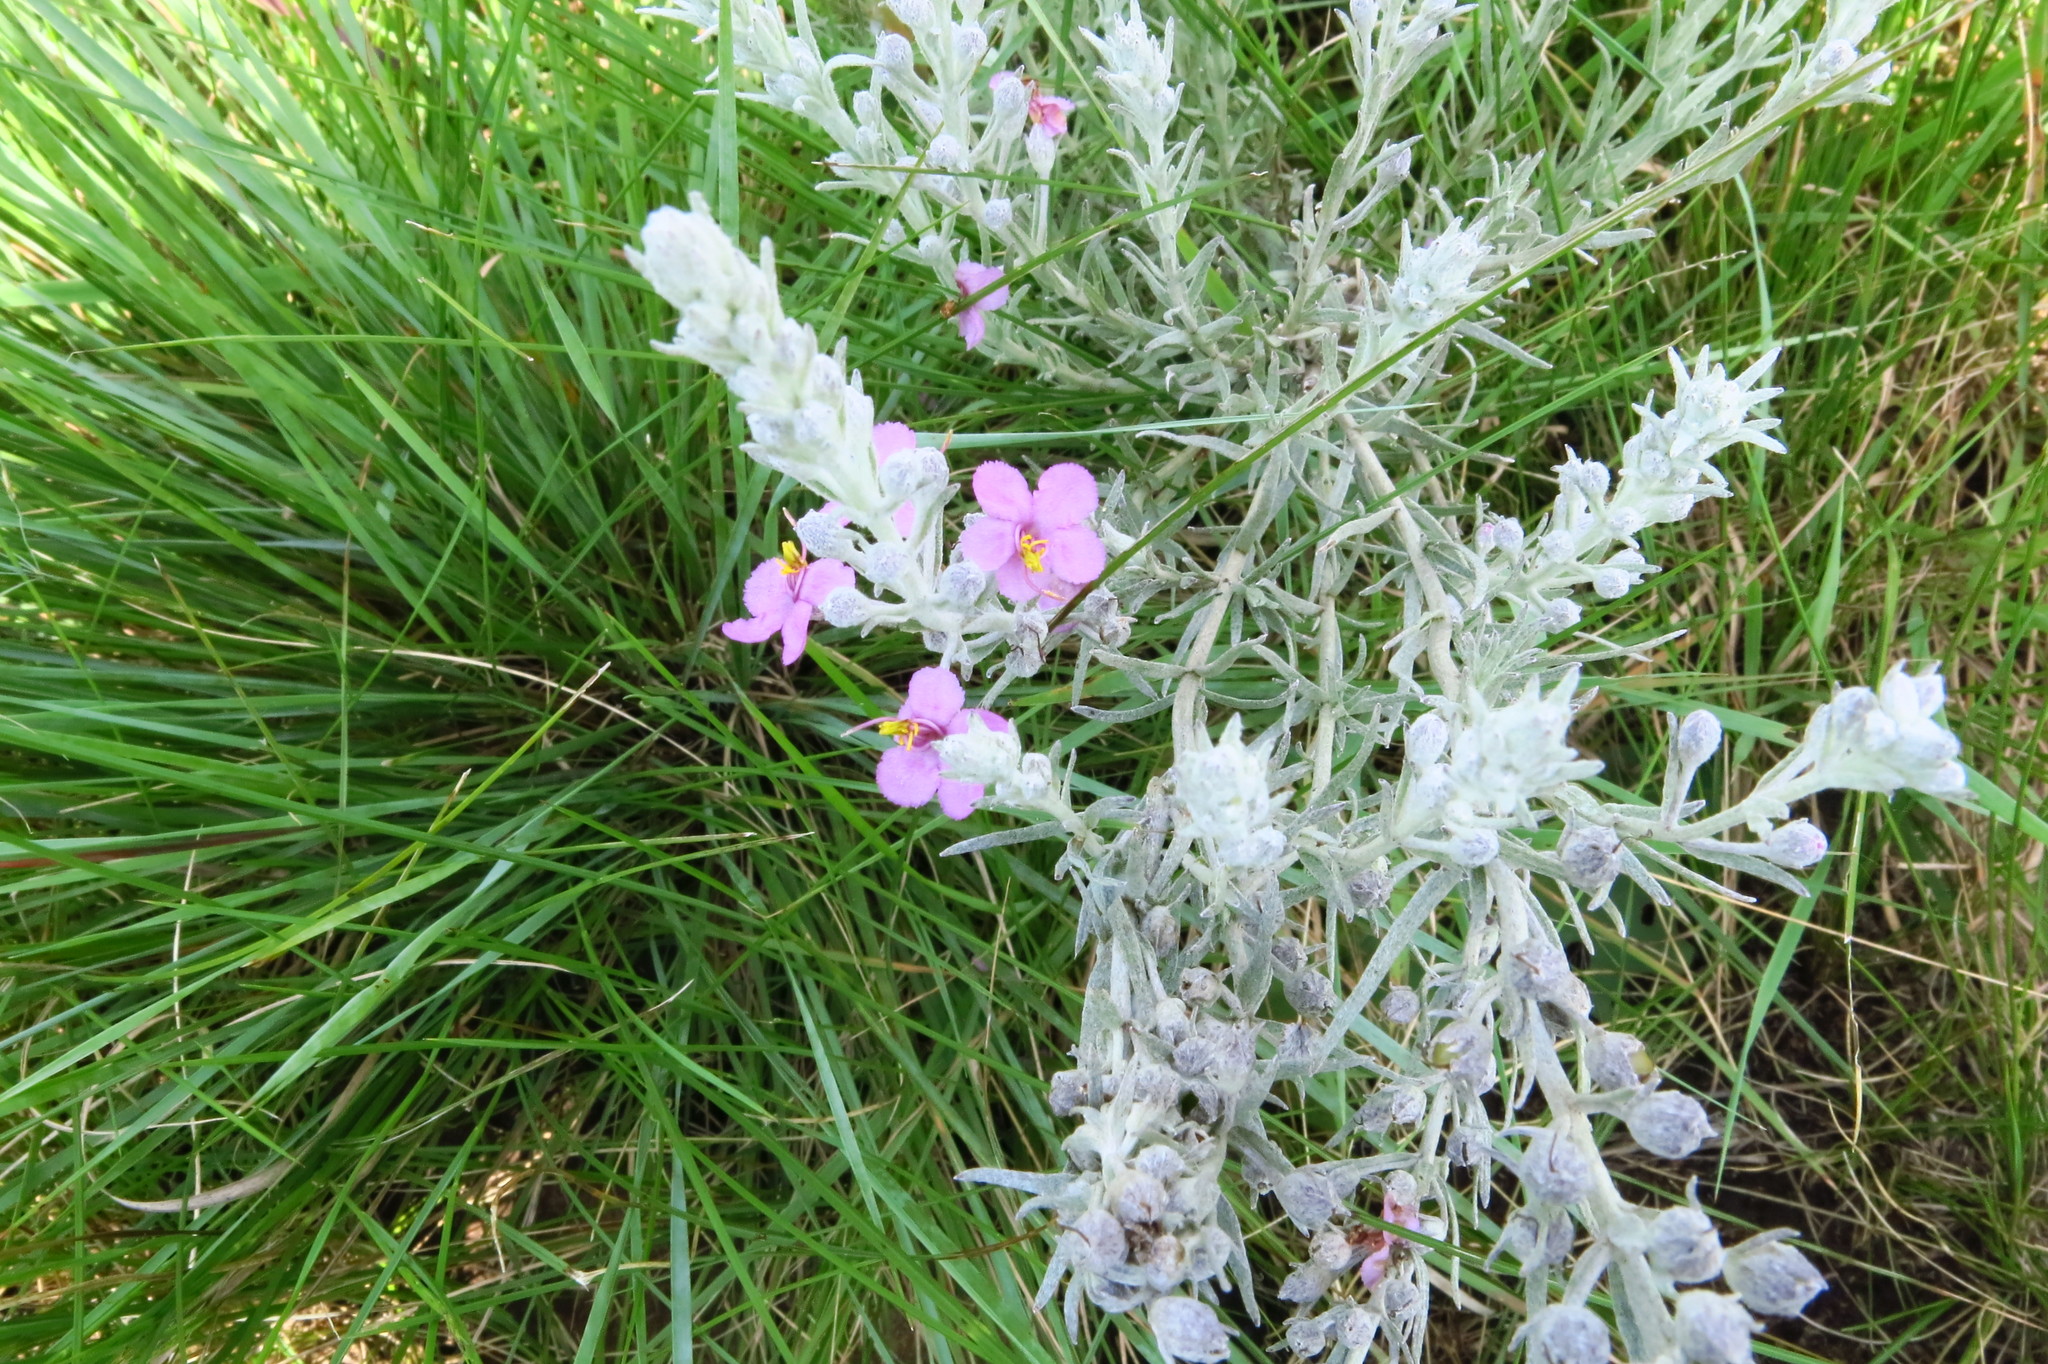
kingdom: Plantae
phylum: Tracheophyta
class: Magnoliopsida
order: Lamiales
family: Orobanchaceae
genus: Sopubia
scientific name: Sopubia cana
